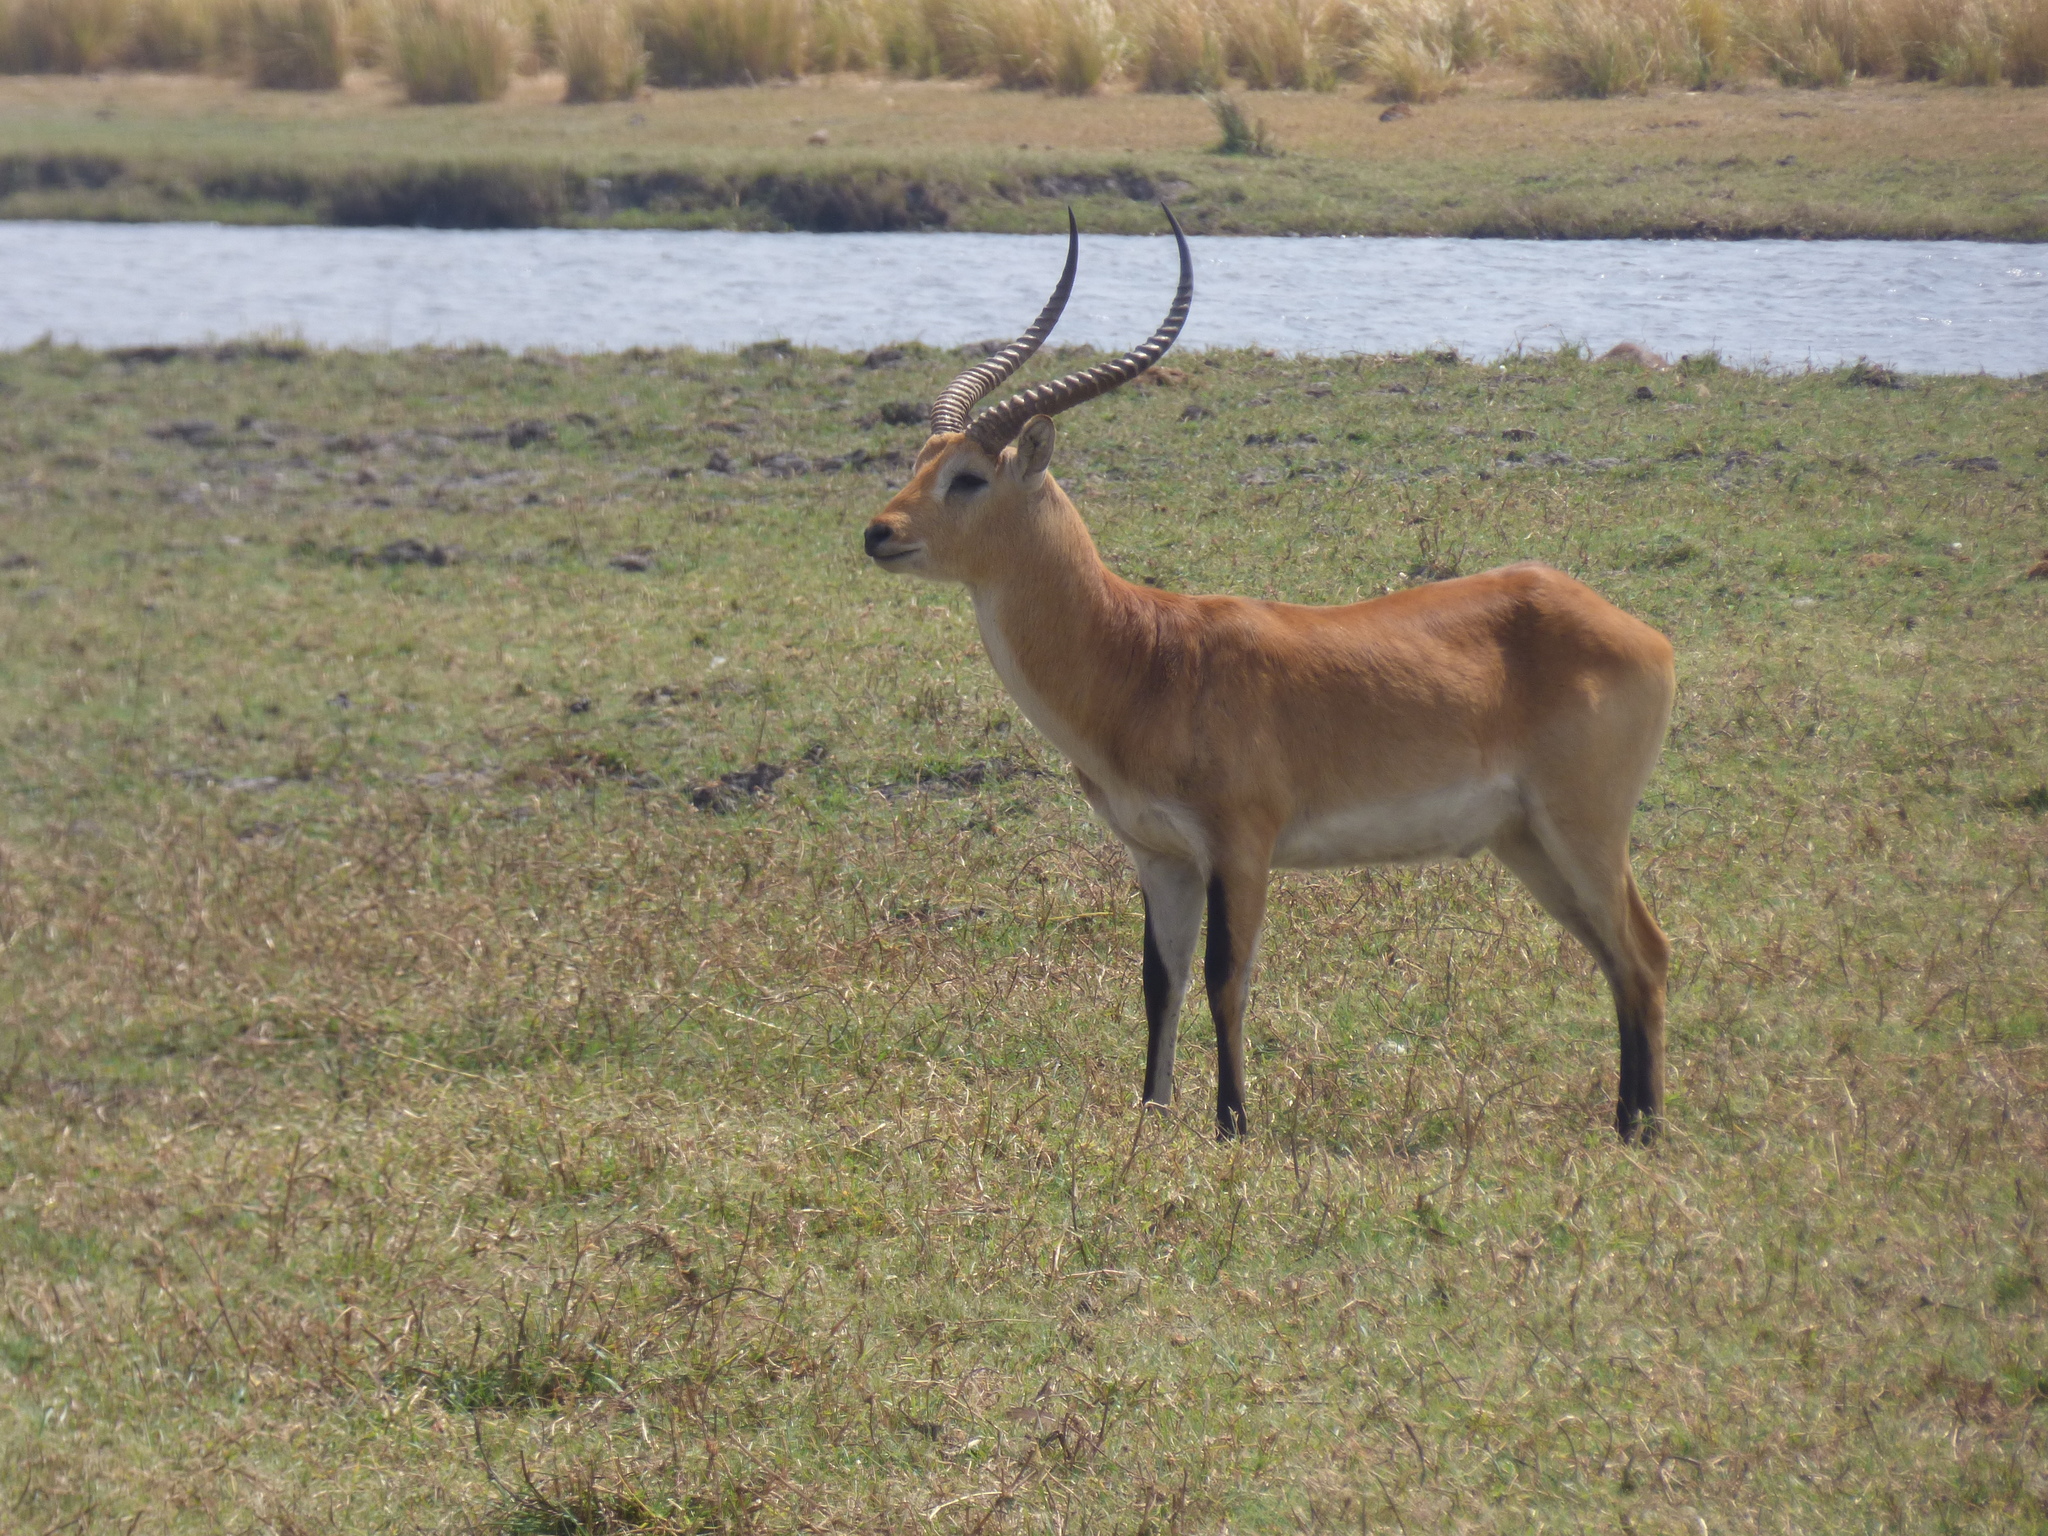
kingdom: Animalia
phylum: Chordata
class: Mammalia
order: Artiodactyla
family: Bovidae
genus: Kobus
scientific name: Kobus leche
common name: Lechwe
